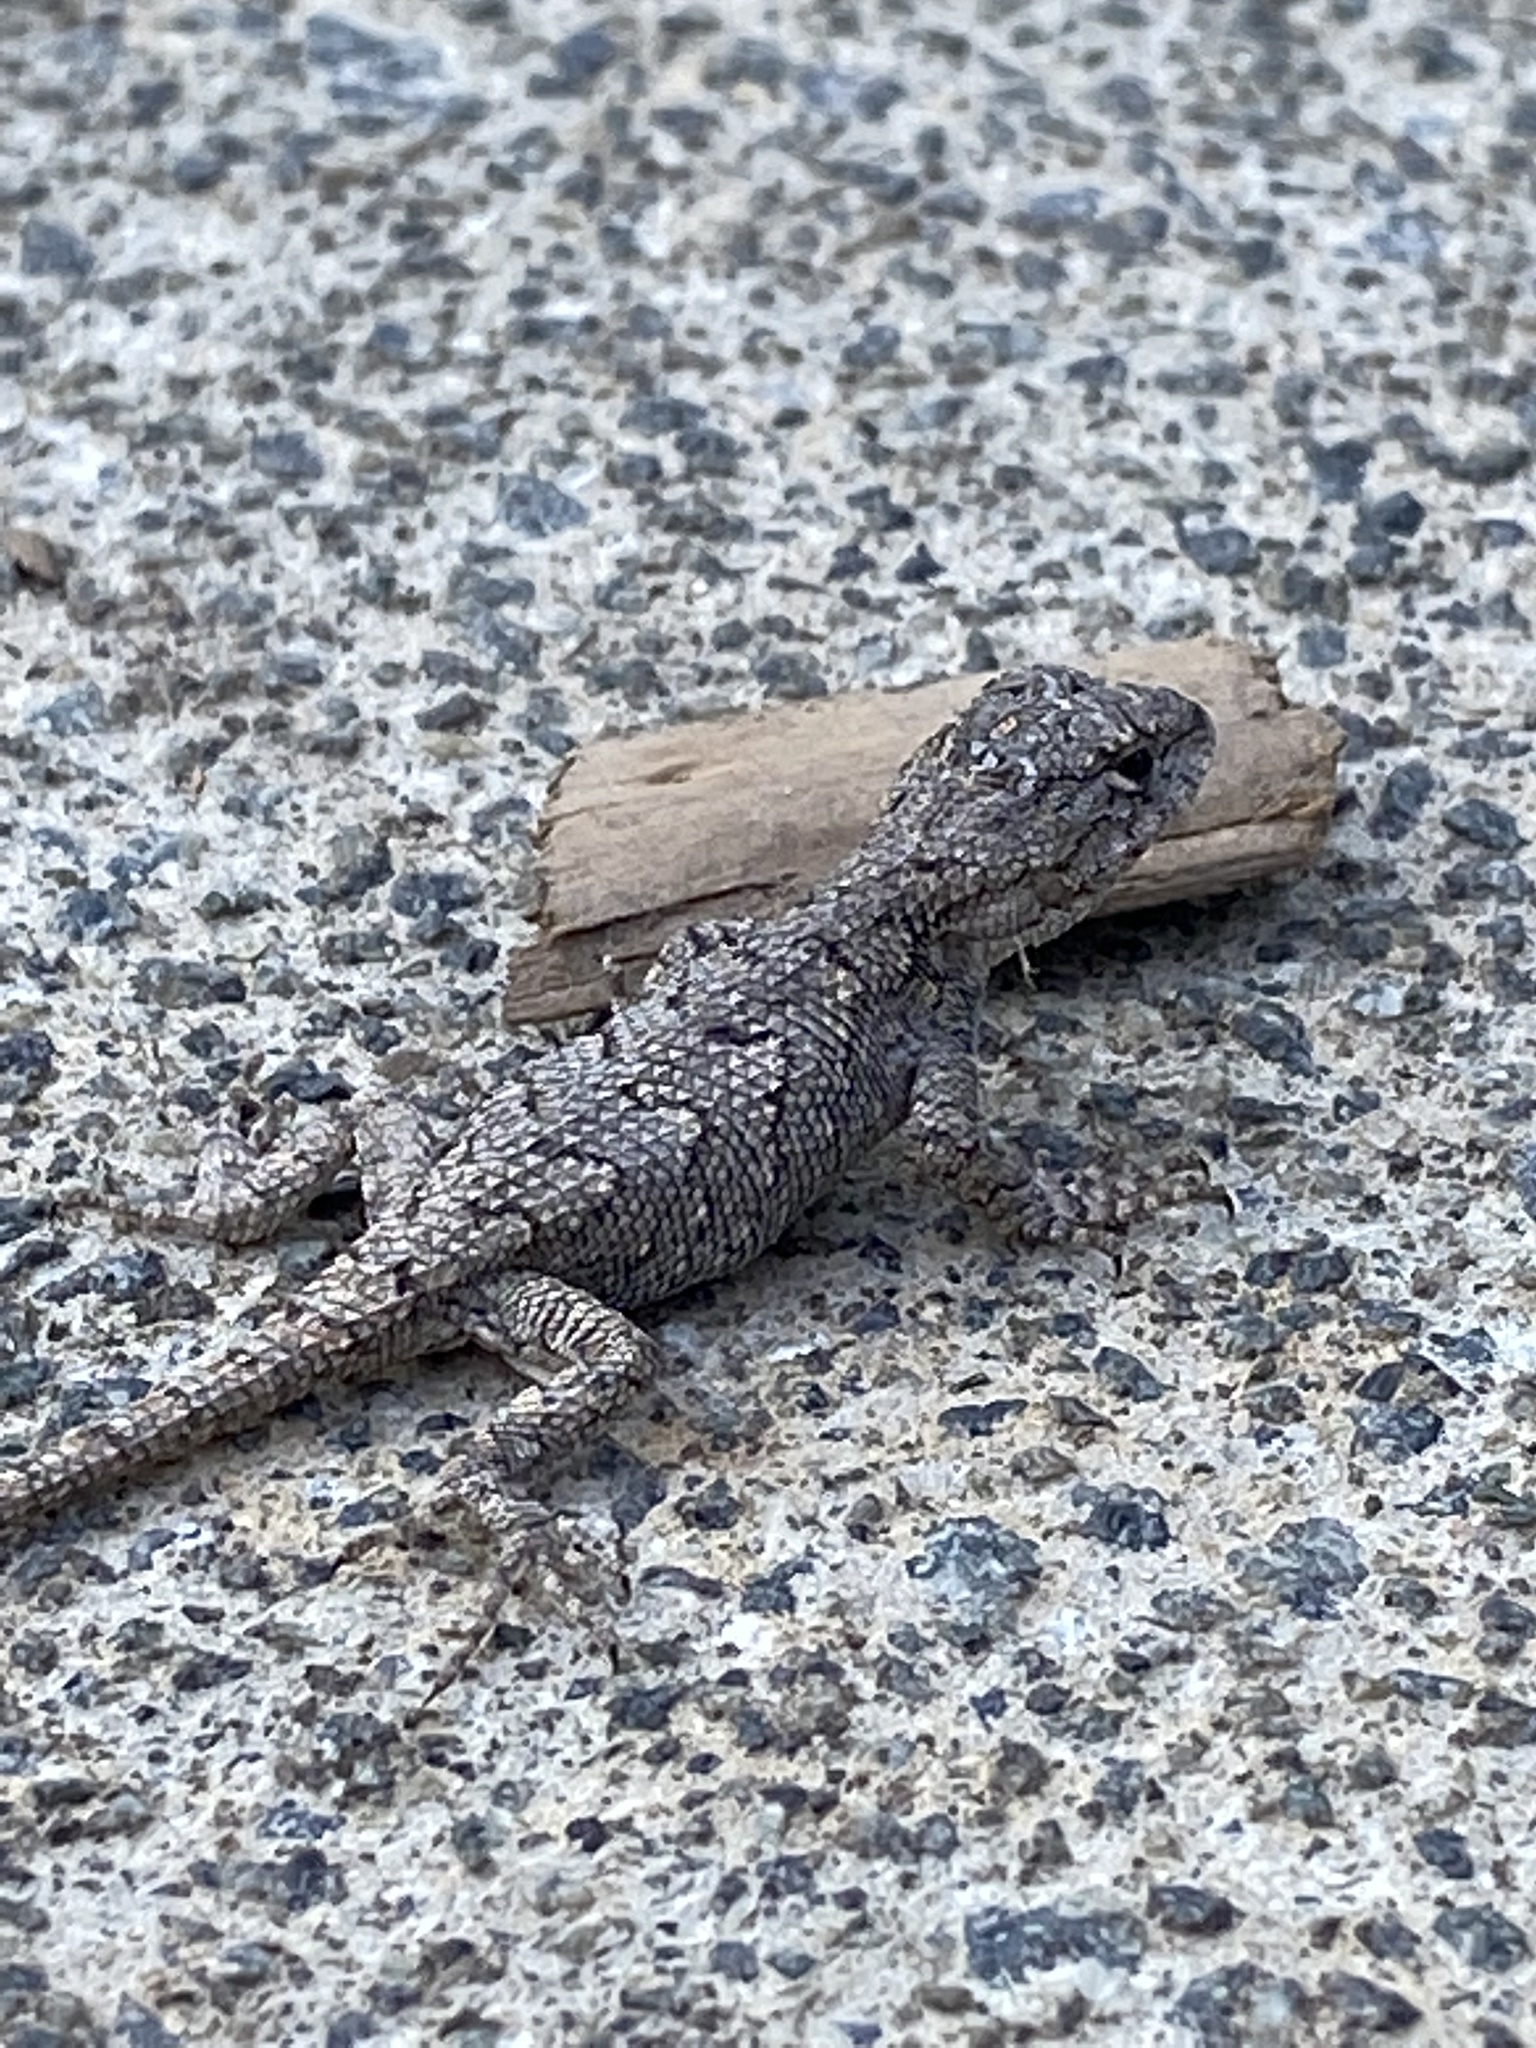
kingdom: Animalia
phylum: Chordata
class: Squamata
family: Phrynosomatidae
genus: Sceloporus
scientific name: Sceloporus undulatus
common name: Eastern fence lizard
